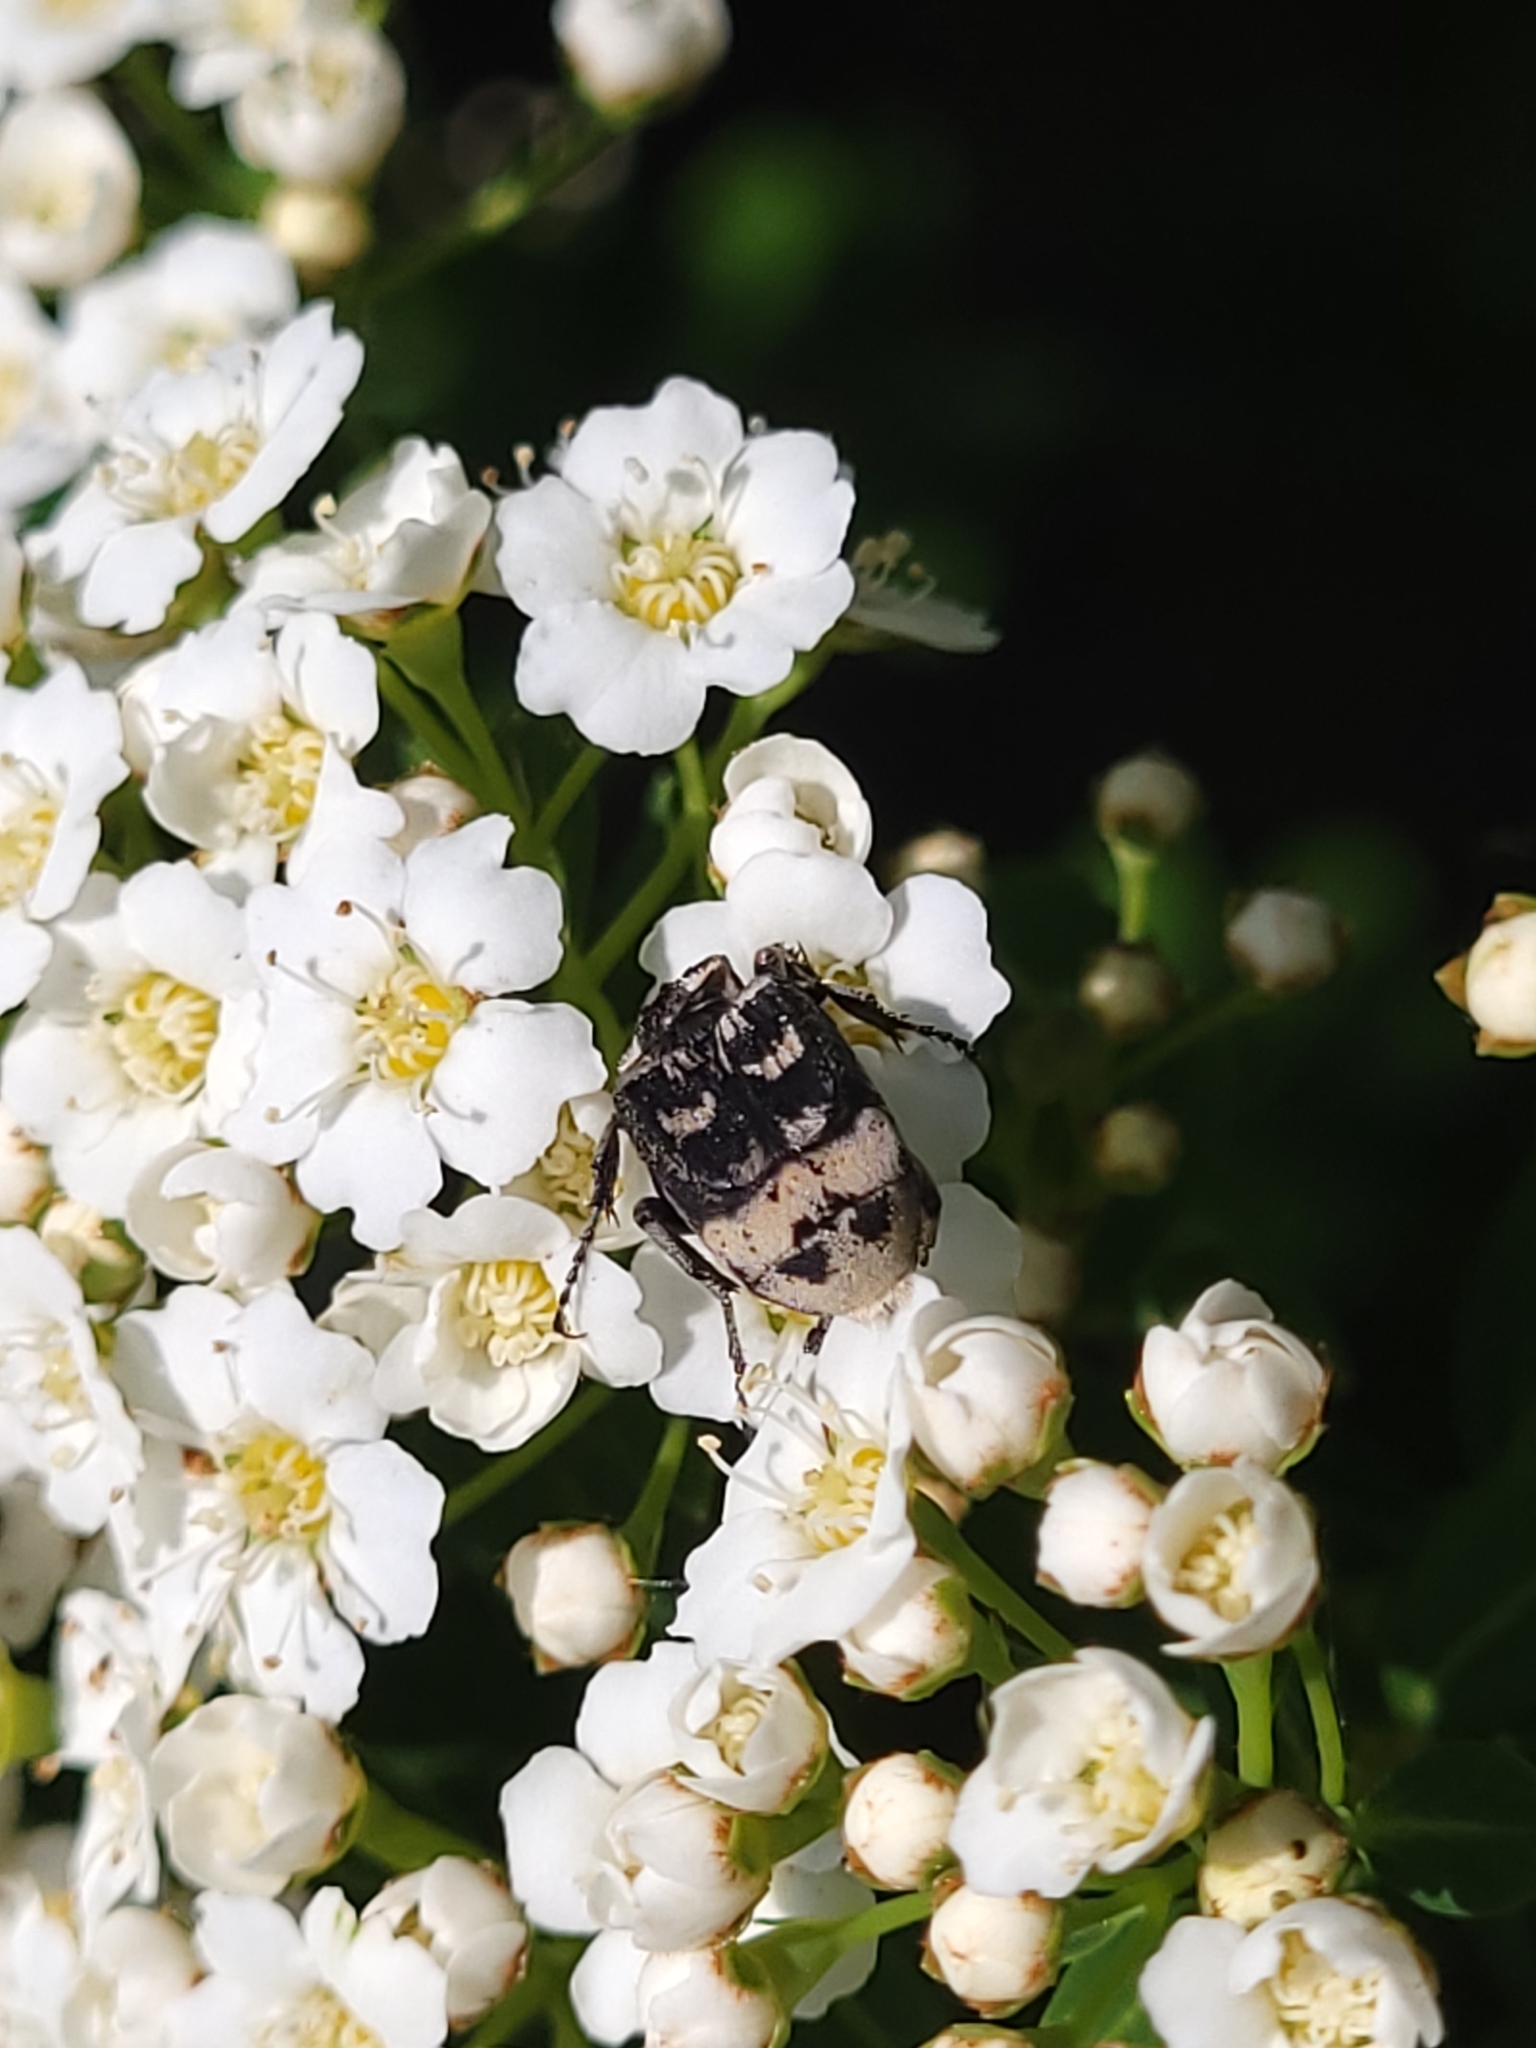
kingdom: Animalia
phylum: Arthropoda
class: Insecta
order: Coleoptera
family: Scarabaeidae
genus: Valgus
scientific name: Valgus hemipterus
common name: Bug flower chafer
